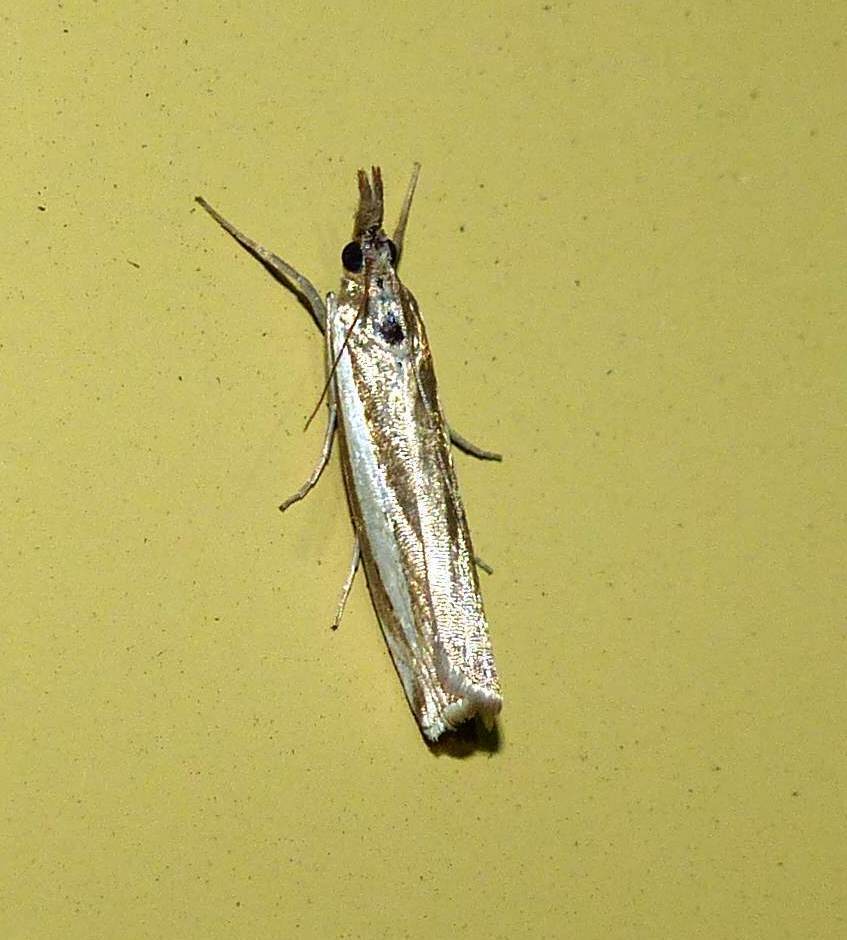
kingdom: Animalia
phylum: Arthropoda
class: Insecta
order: Lepidoptera
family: Crambidae
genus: Crambus
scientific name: Crambus praefectellus
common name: Common grass-veneer
